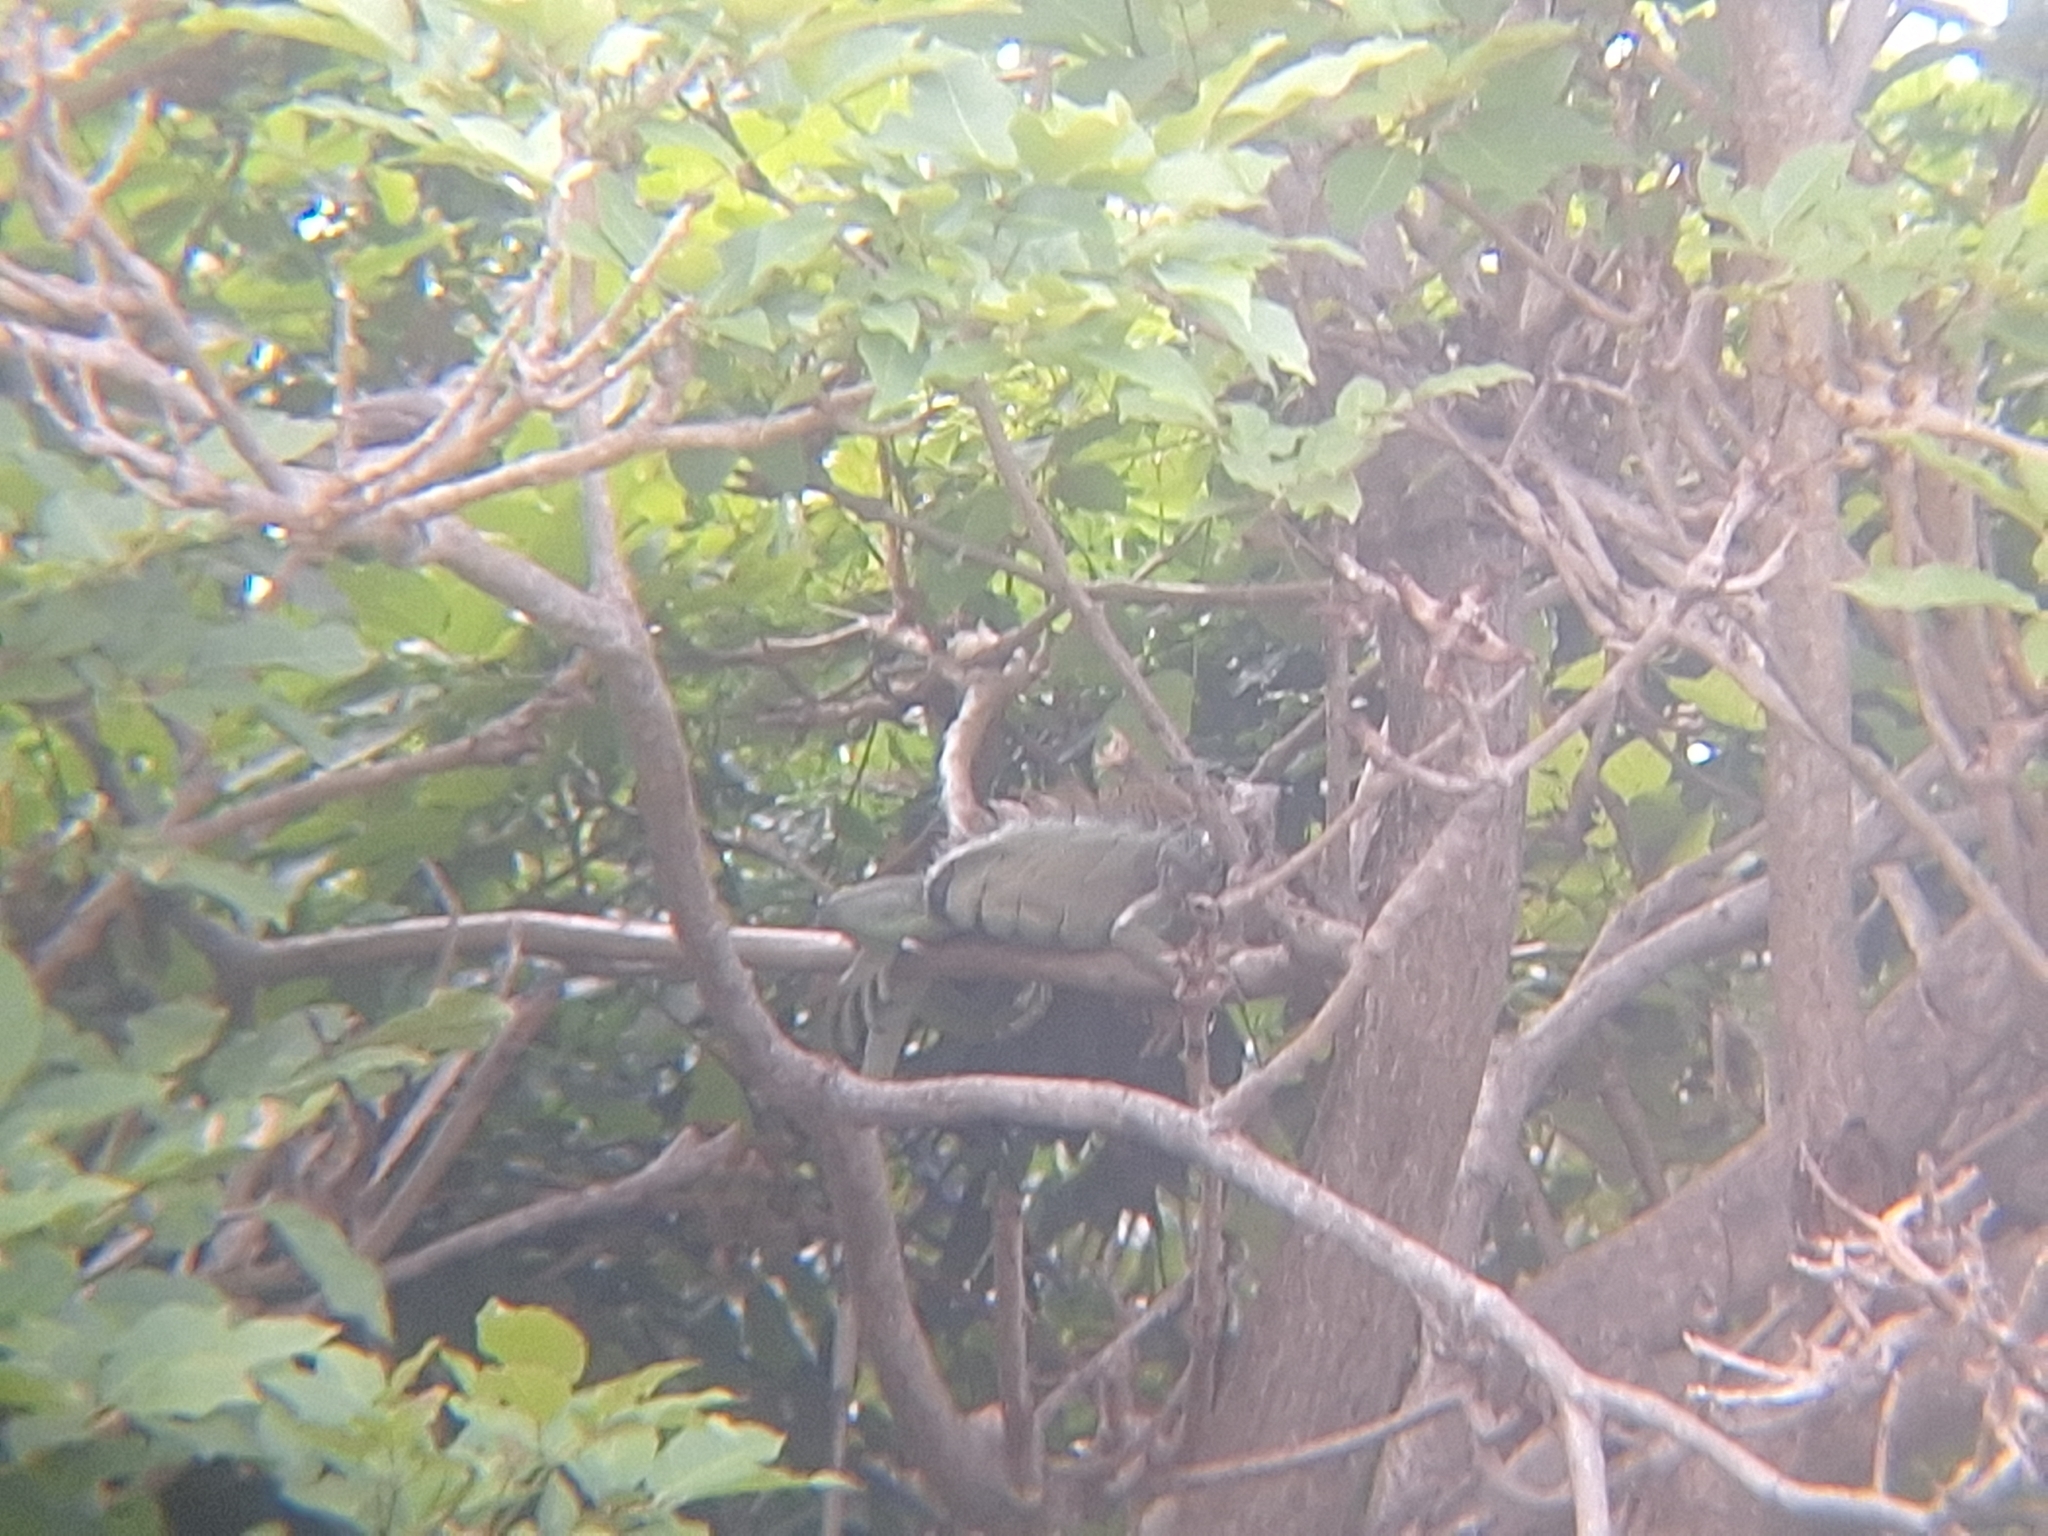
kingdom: Animalia
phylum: Chordata
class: Squamata
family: Iguanidae
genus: Iguana
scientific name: Iguana iguana
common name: Green iguana
